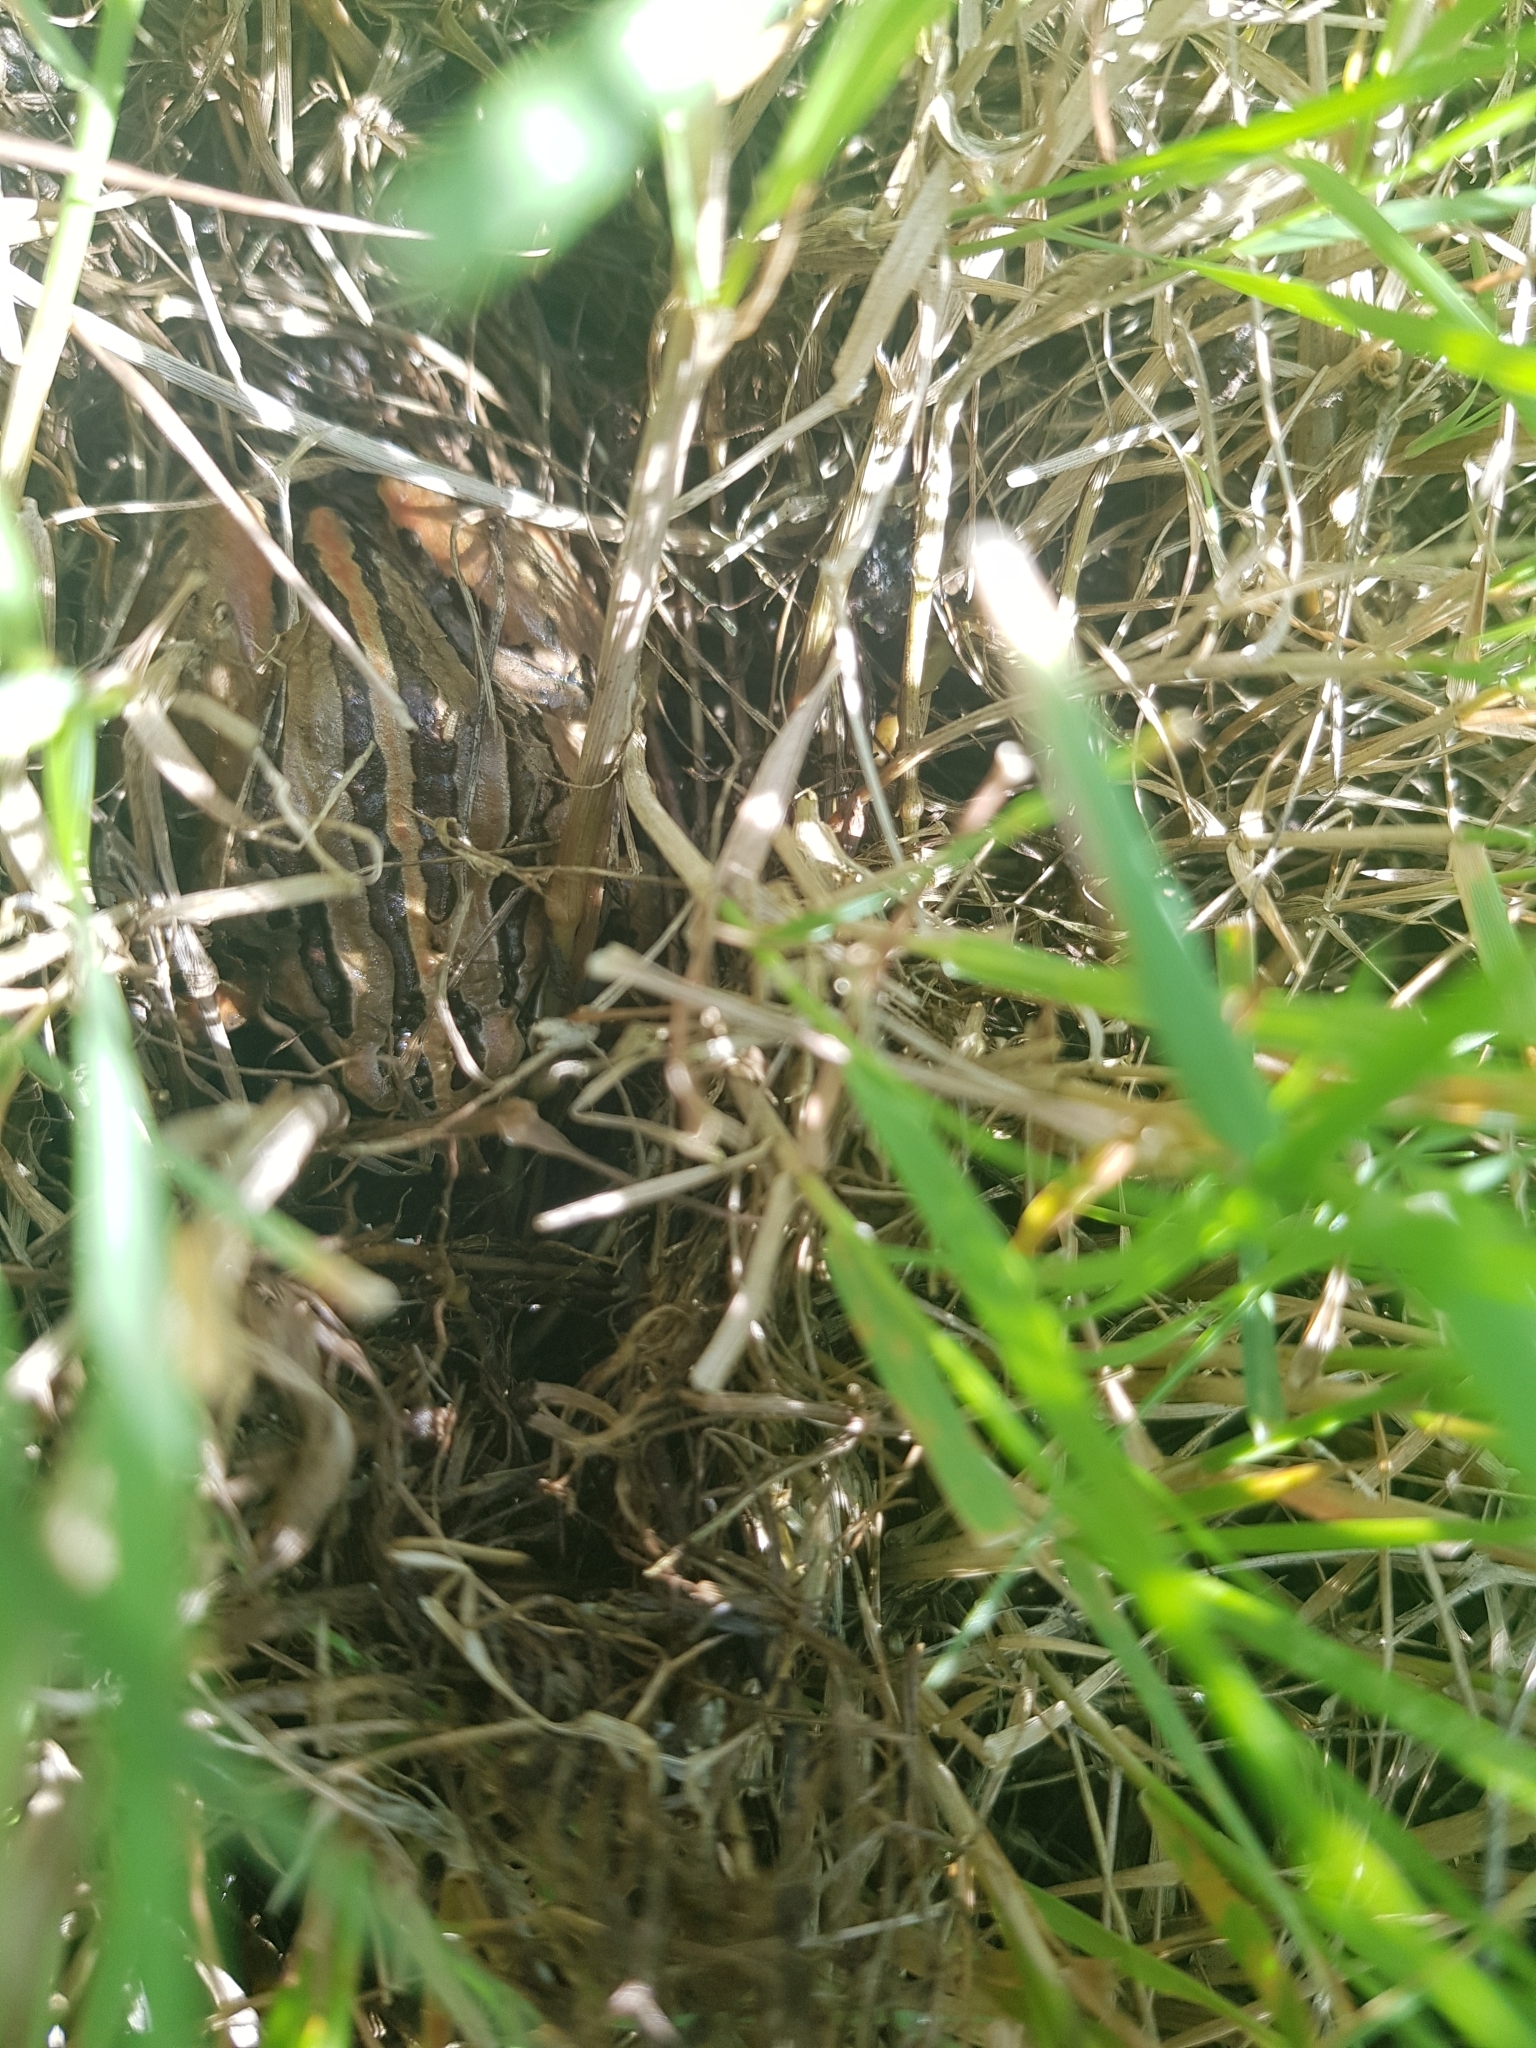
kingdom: Animalia
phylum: Chordata
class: Amphibia
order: Anura
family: Limnodynastidae
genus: Limnodynastes
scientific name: Limnodynastes peronii
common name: Brown frog
